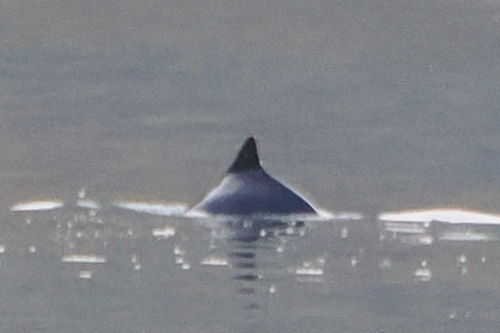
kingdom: Animalia
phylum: Chordata
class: Mammalia
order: Cetacea
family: Phocoenidae
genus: Phocoena
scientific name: Phocoena phocoena
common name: Harbor porpoise
